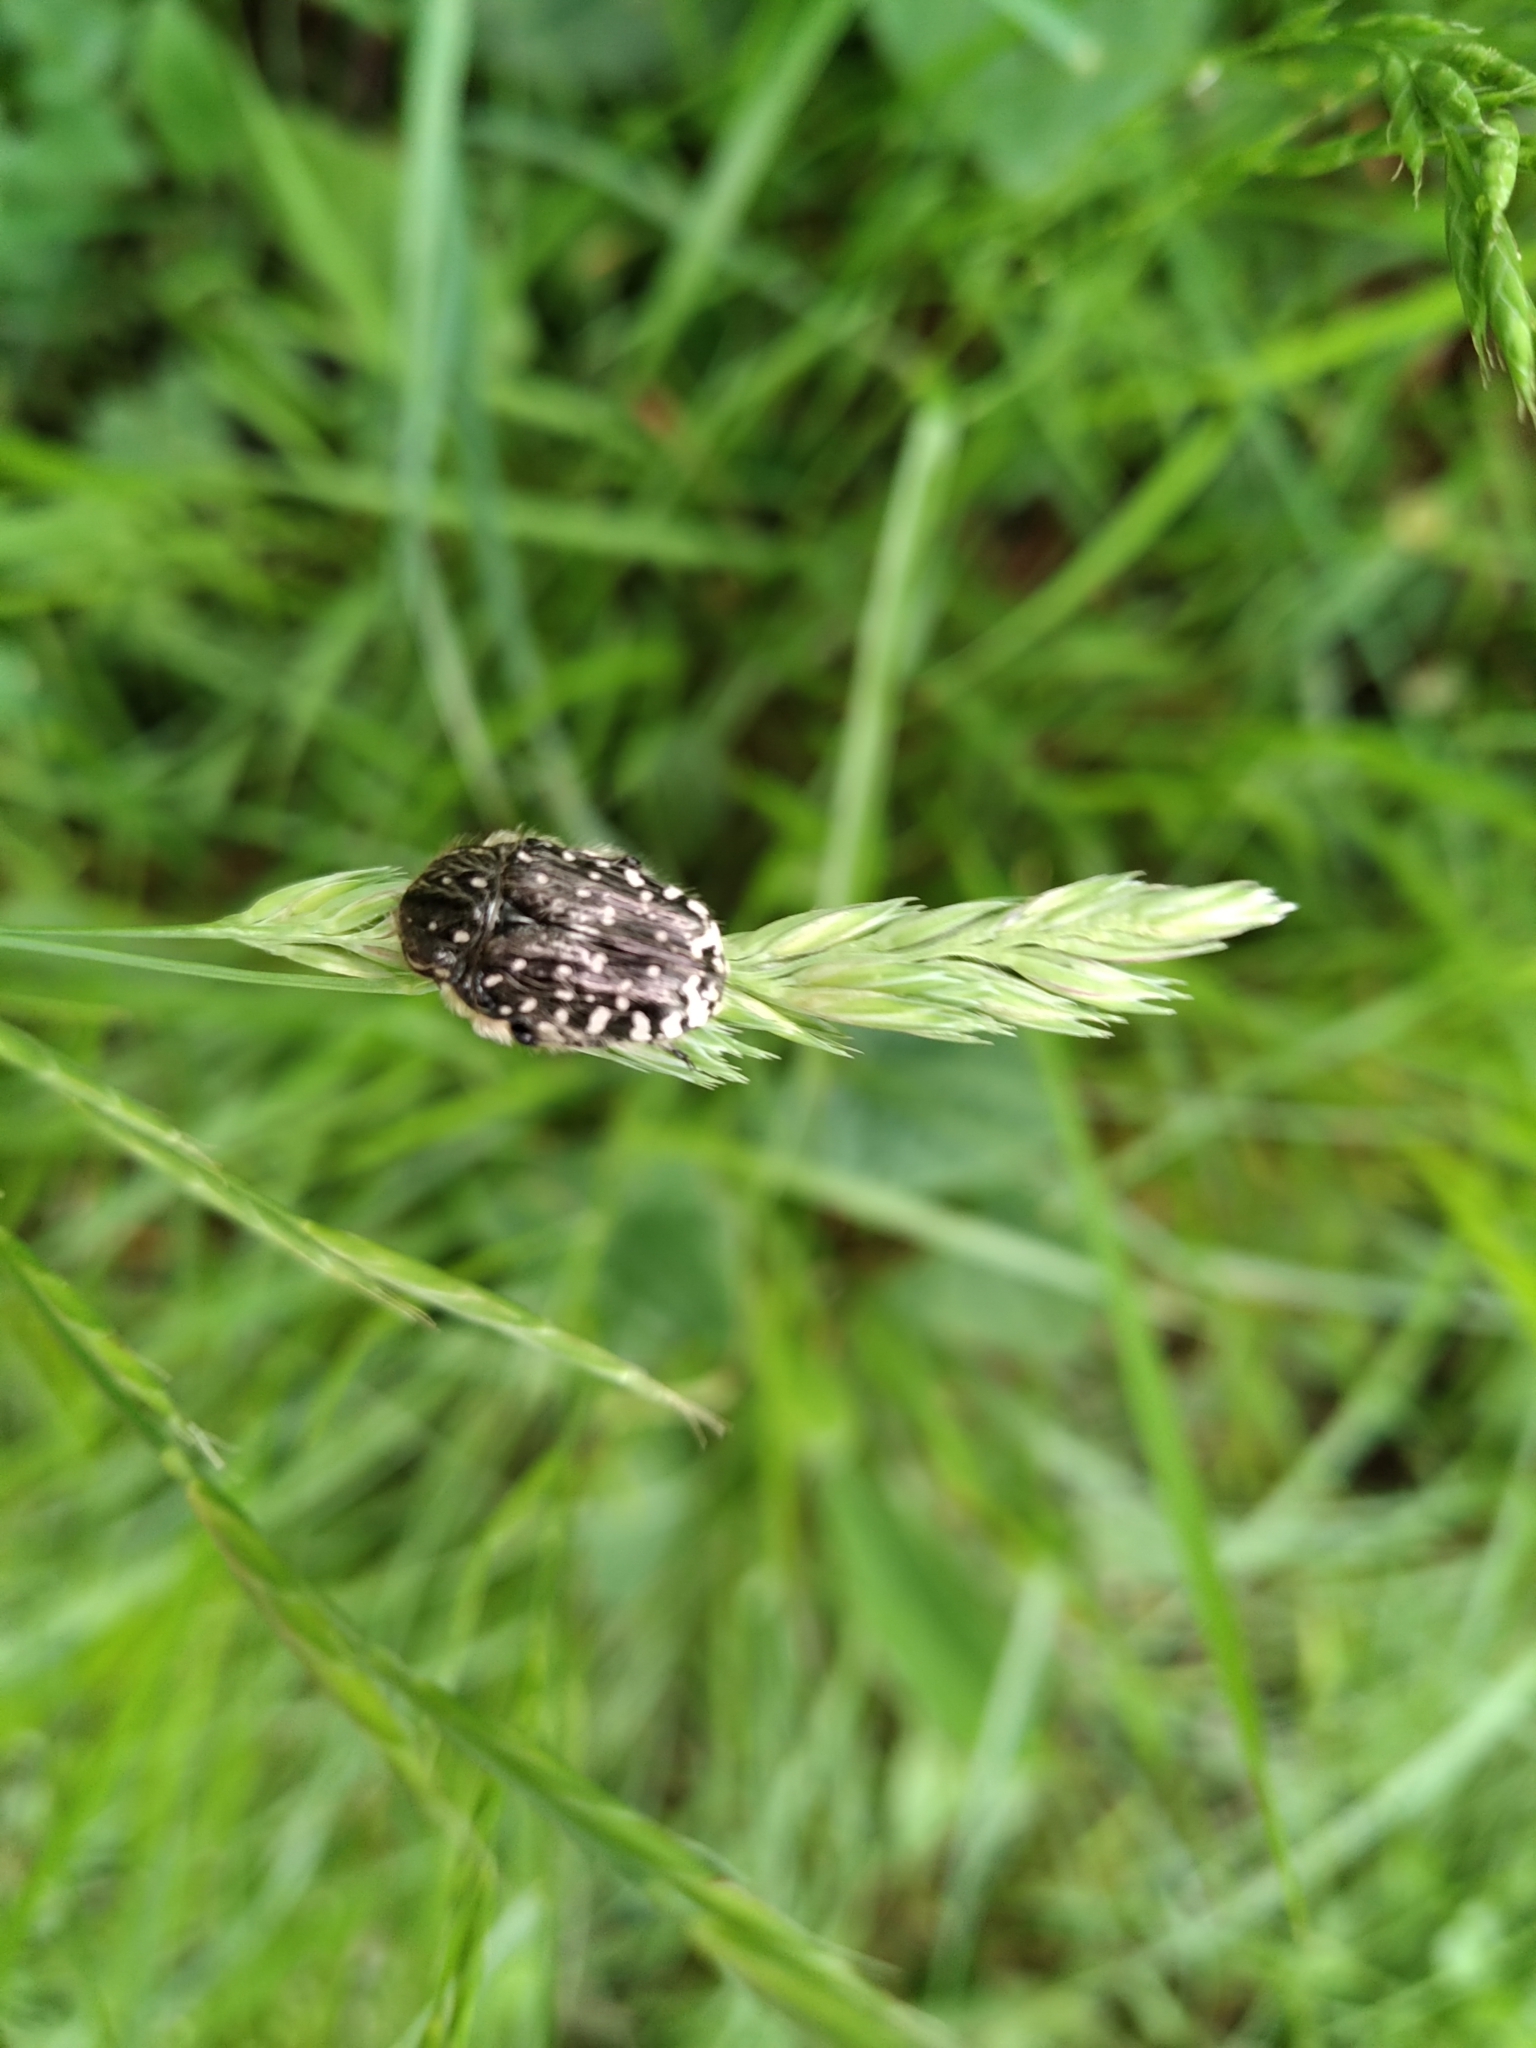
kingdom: Animalia
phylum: Arthropoda
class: Insecta
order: Coleoptera
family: Scarabaeidae
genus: Oxythyrea
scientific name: Oxythyrea funesta
